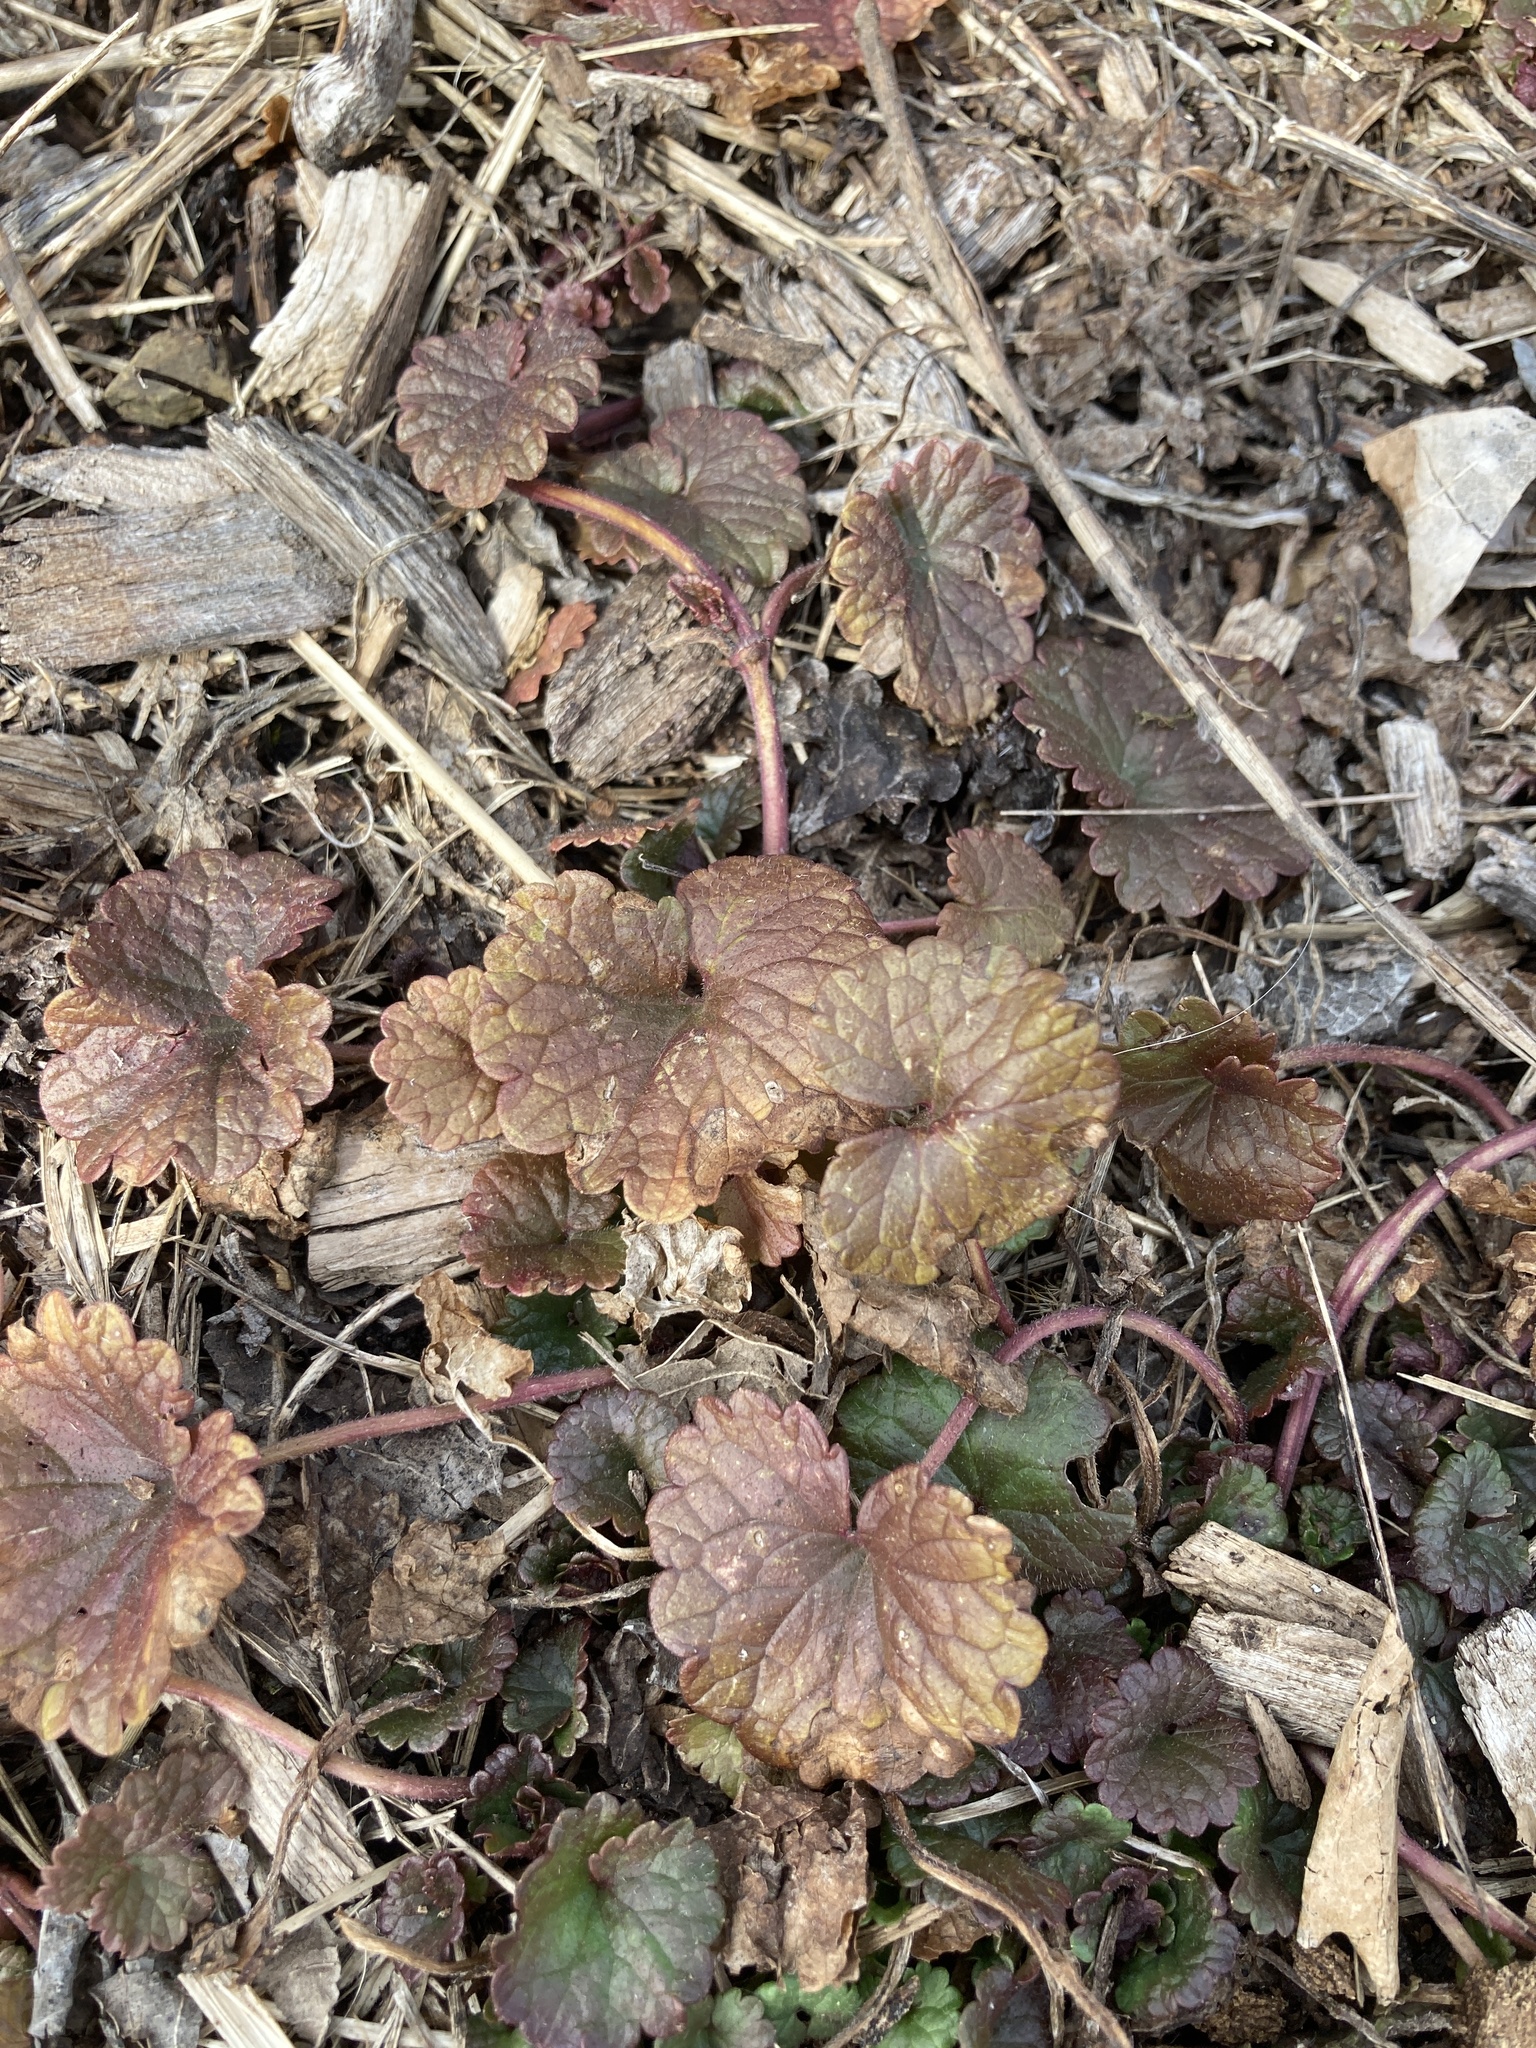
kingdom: Plantae
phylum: Tracheophyta
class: Magnoliopsida
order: Lamiales
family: Lamiaceae
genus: Glechoma
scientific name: Glechoma hederacea
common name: Ground ivy
